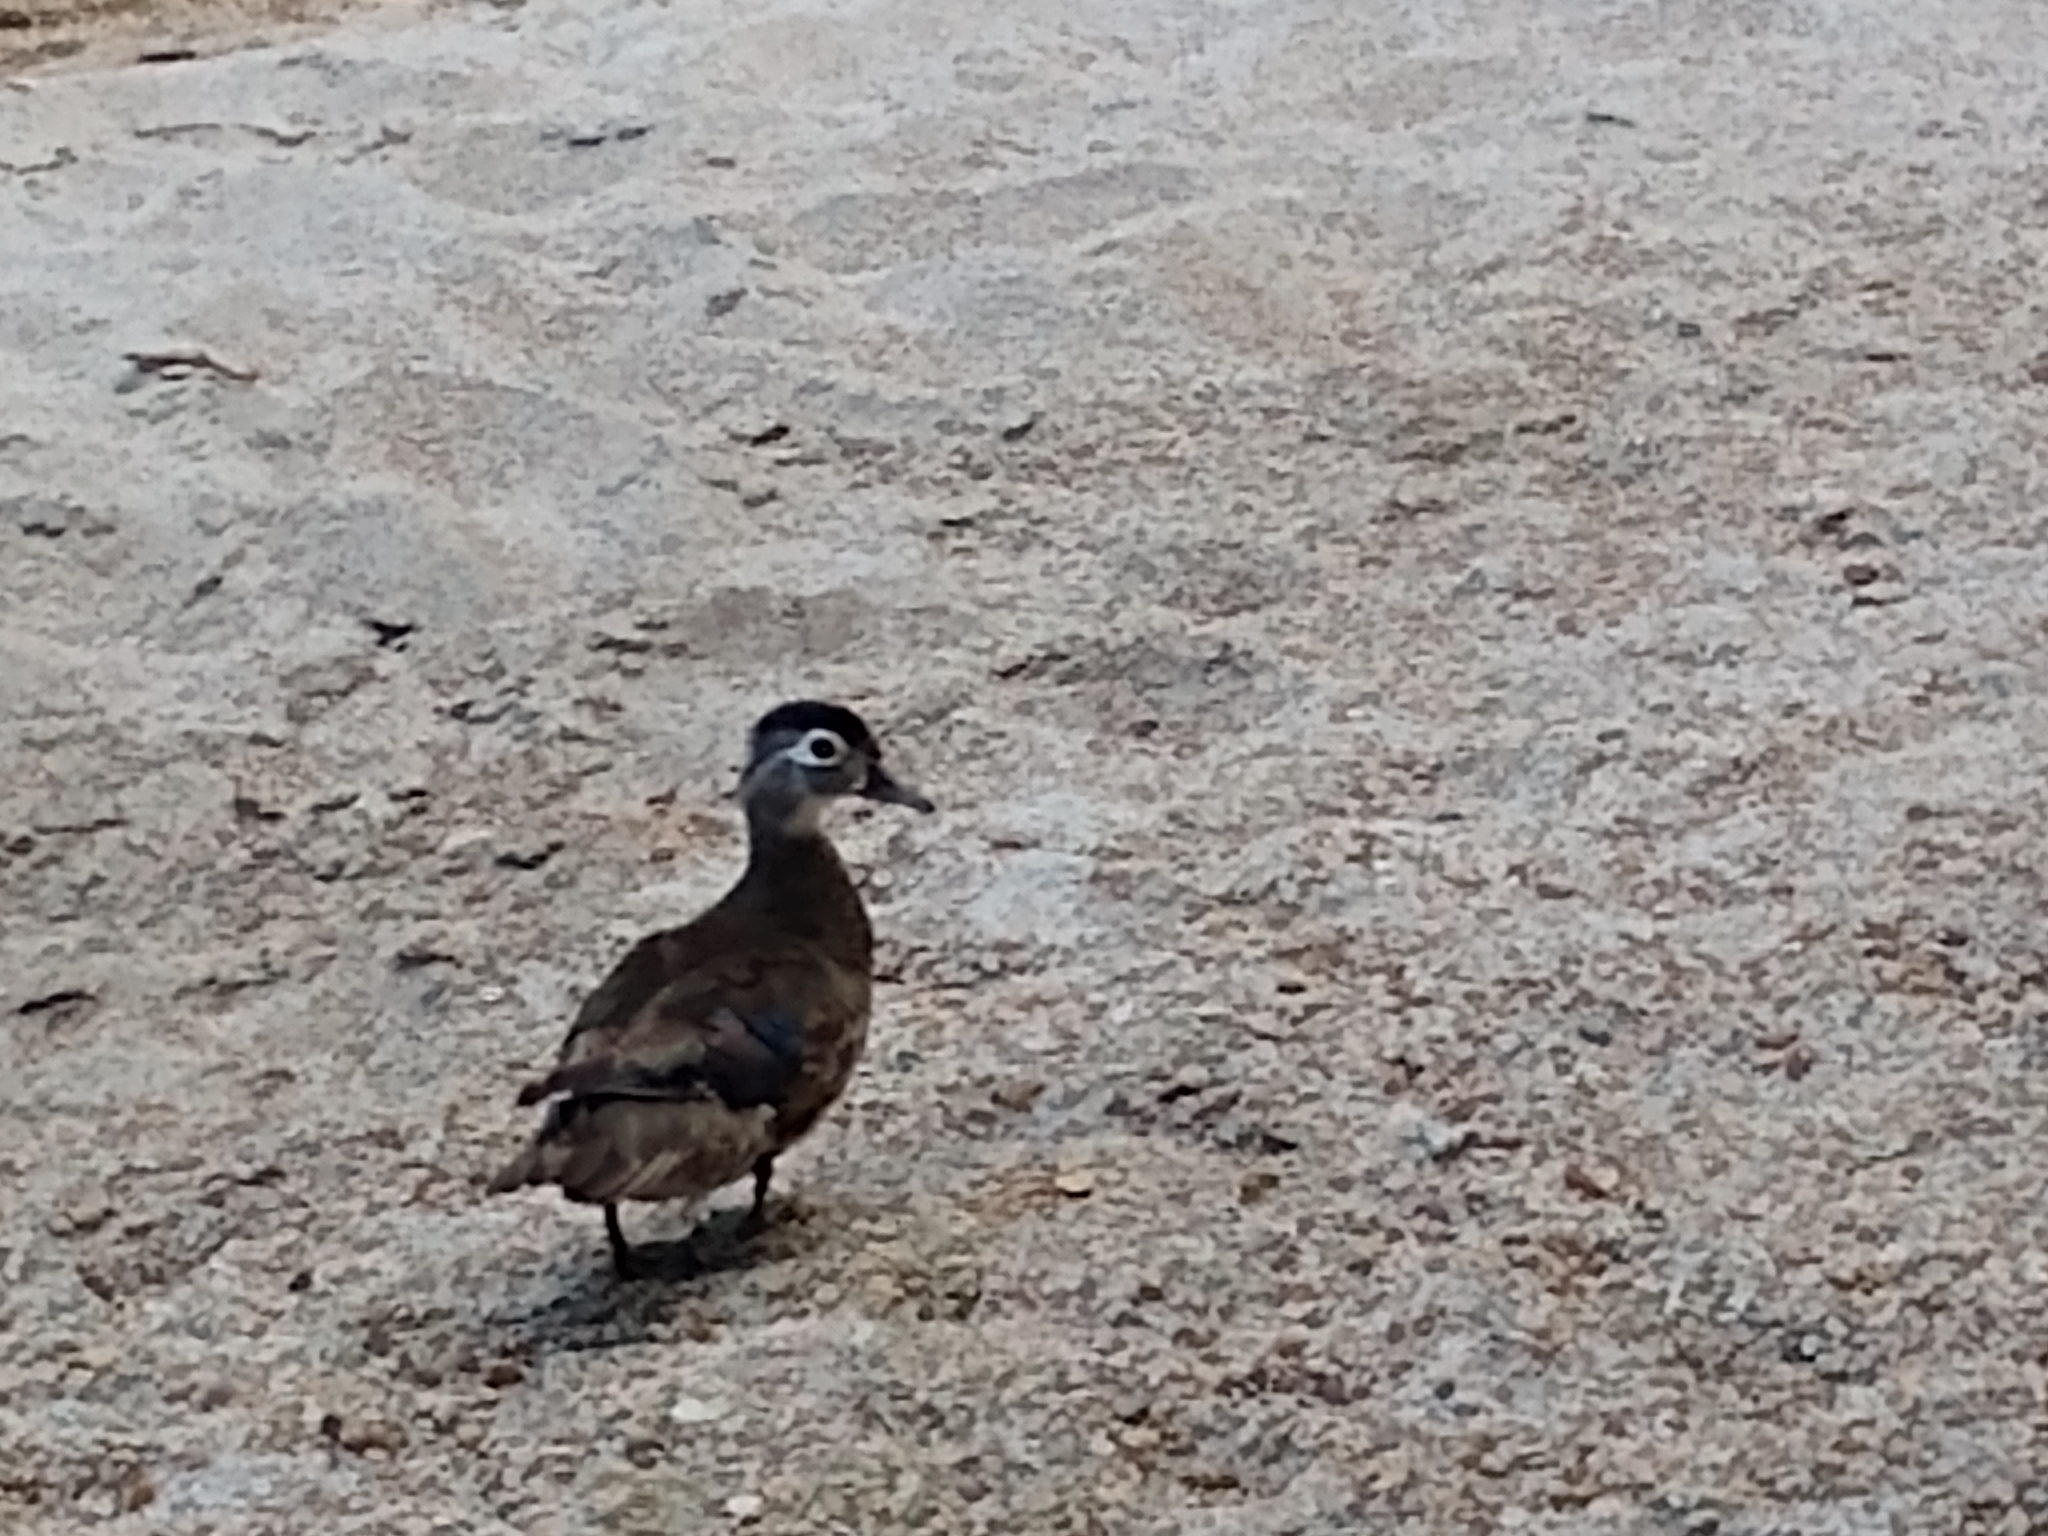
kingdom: Animalia
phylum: Chordata
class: Aves
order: Anseriformes
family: Anatidae
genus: Aix
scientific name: Aix sponsa
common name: Wood duck
